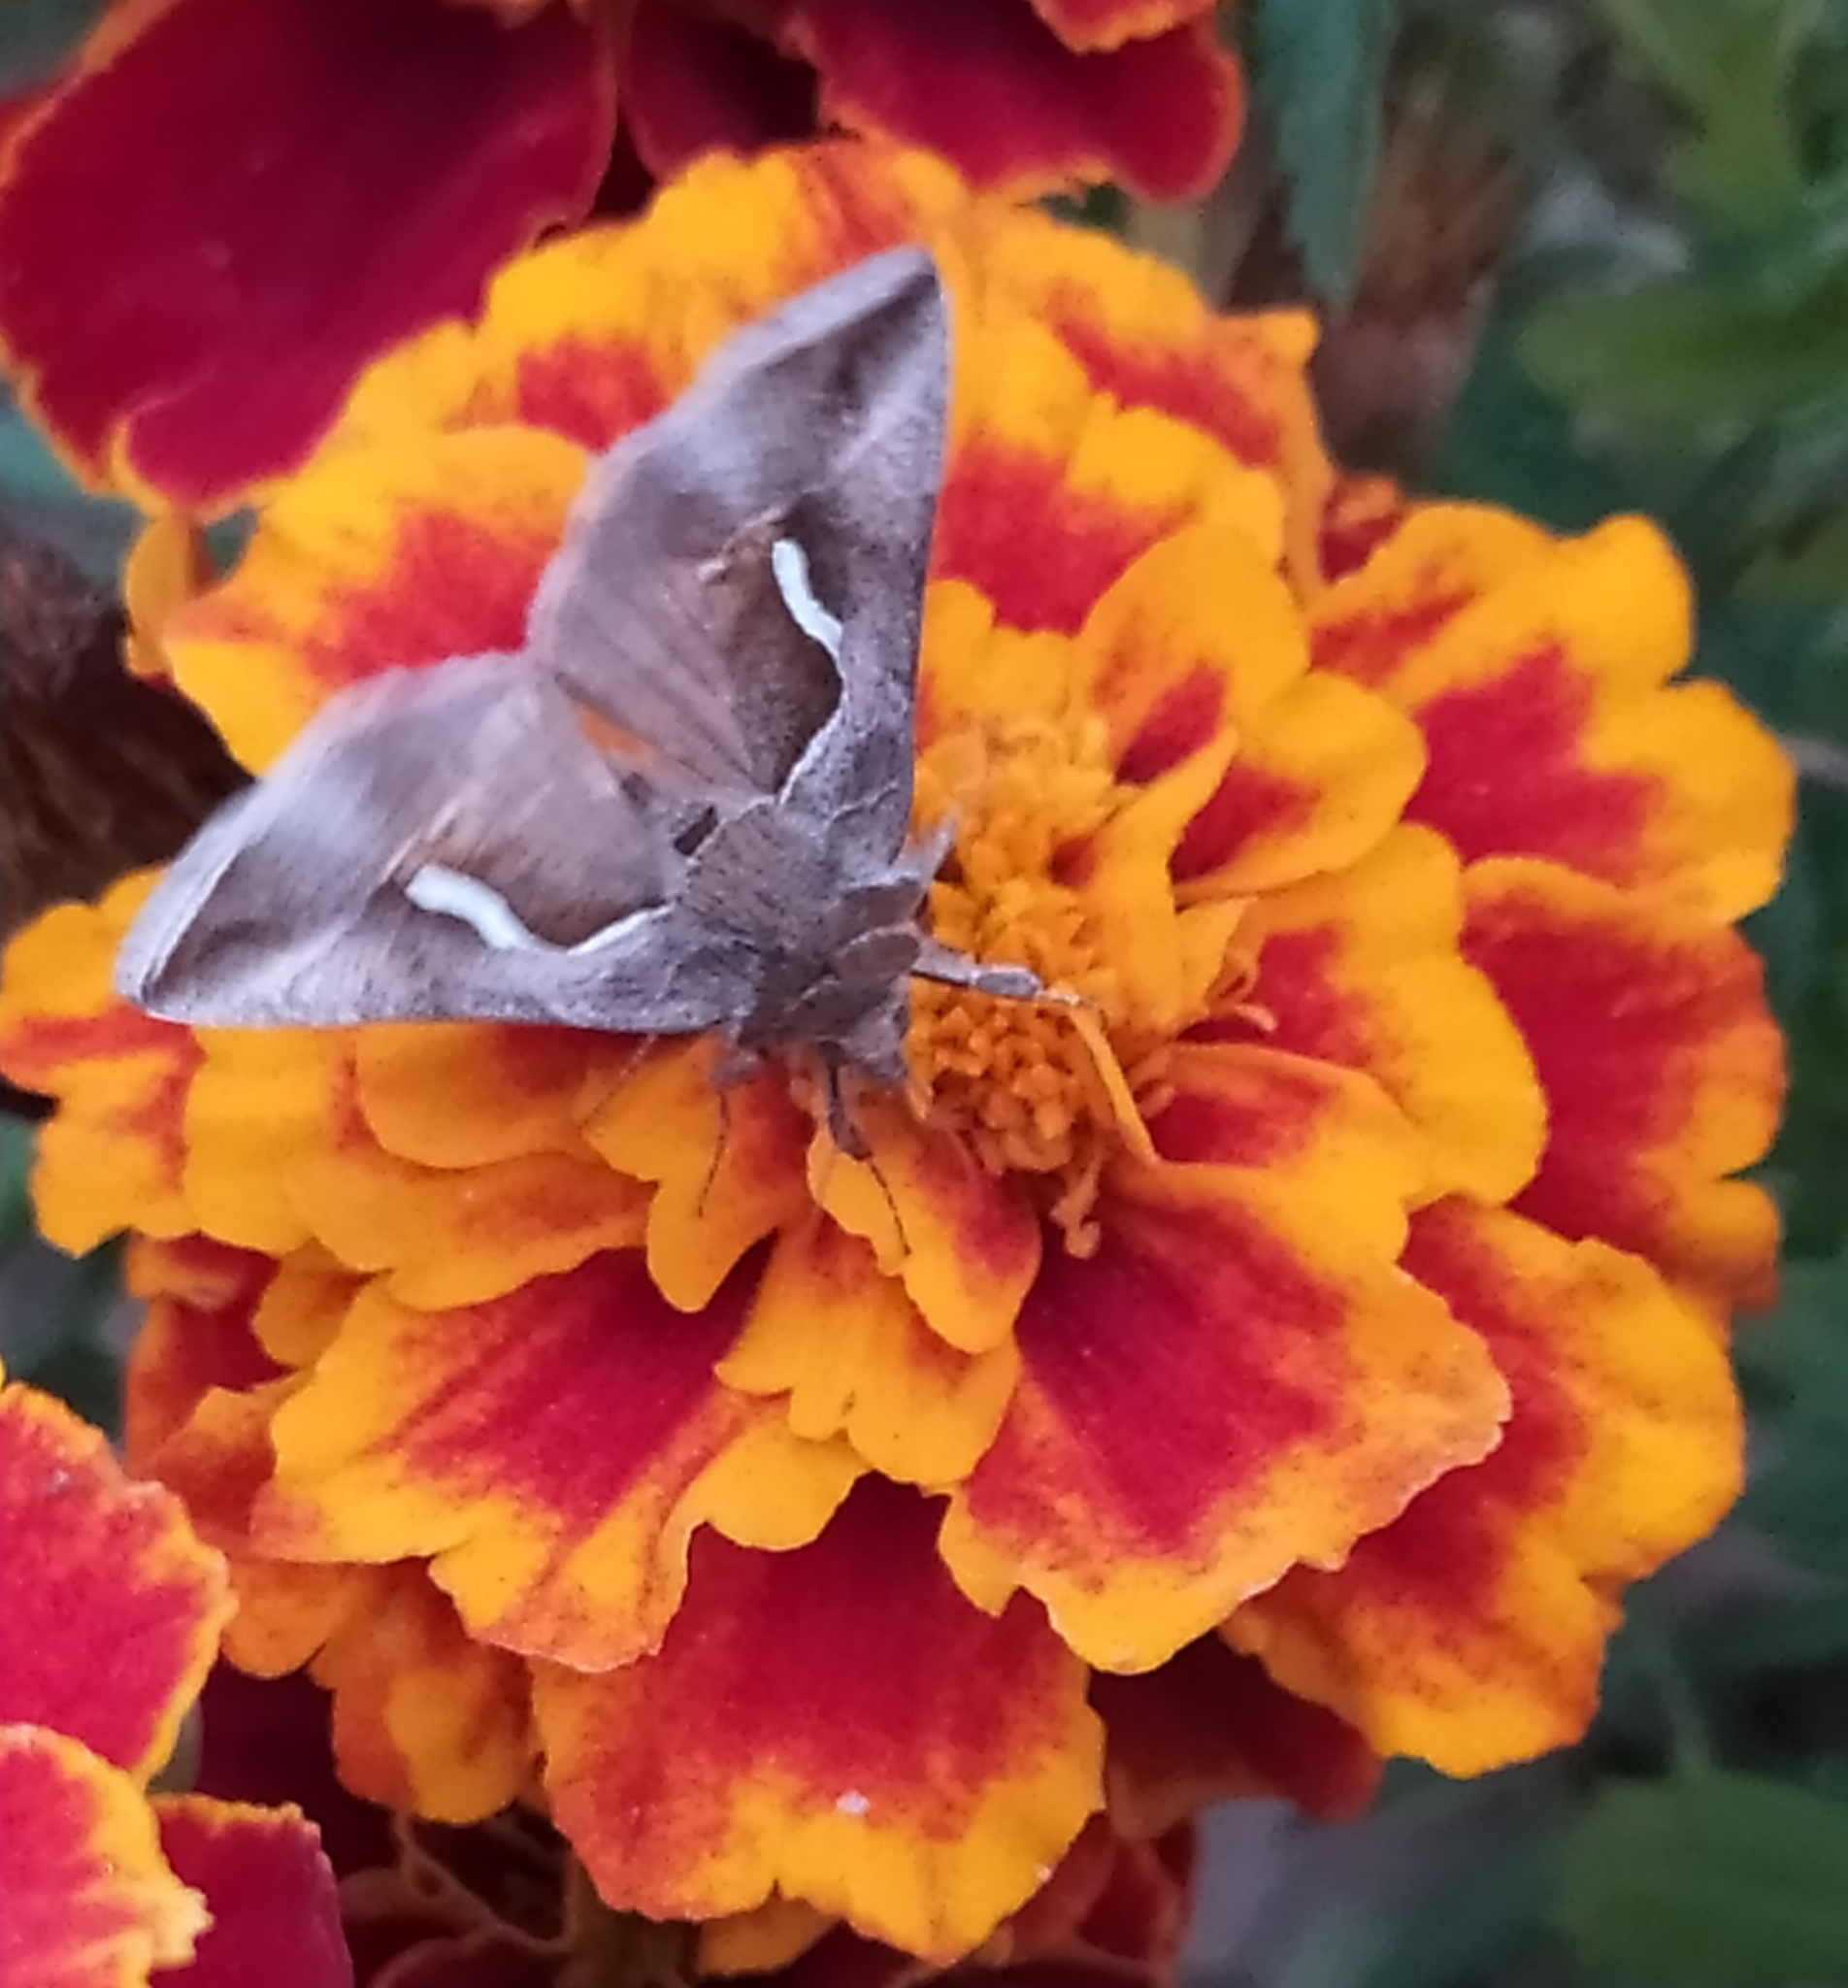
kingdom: Animalia
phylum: Arthropoda
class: Insecta
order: Lepidoptera
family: Noctuidae
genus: Macdunnoughia
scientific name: Macdunnoughia confusa
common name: Dewick's plusia
